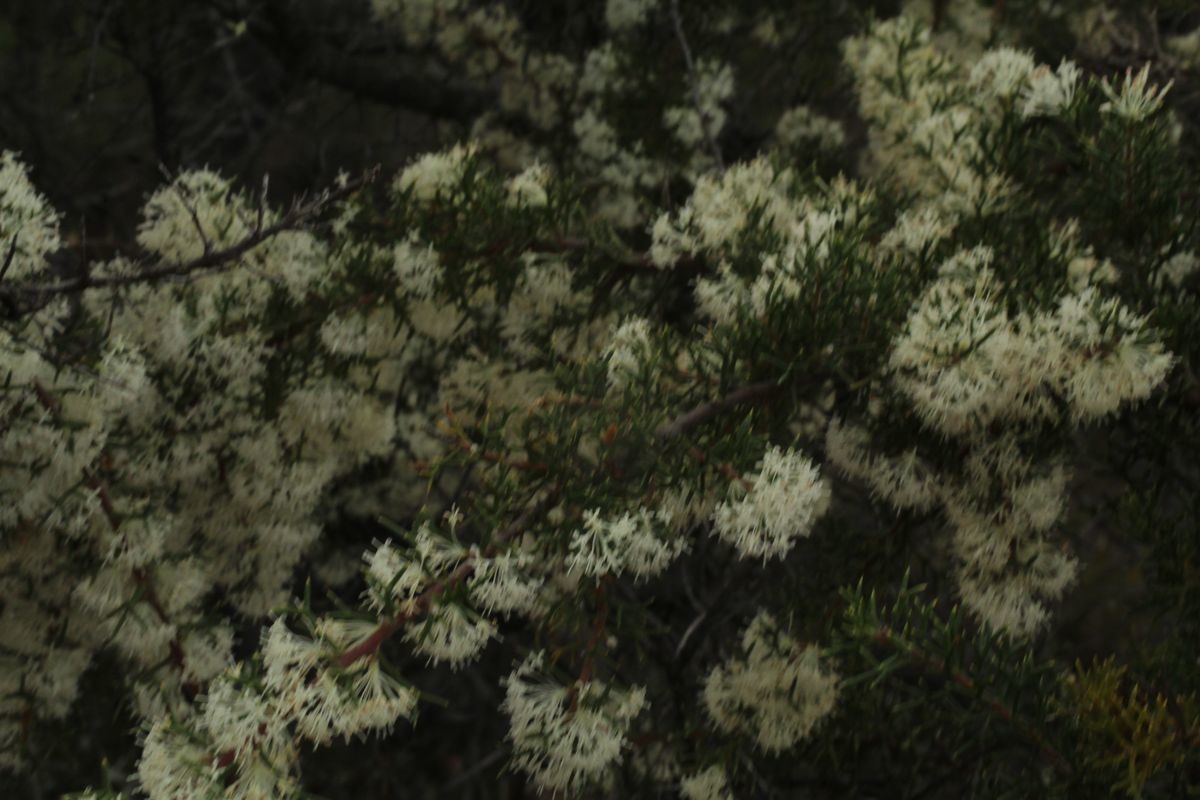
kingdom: Plantae
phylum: Tracheophyta
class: Magnoliopsida
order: Proteales
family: Proteaceae
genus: Hakea
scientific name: Hakea lissocarpha
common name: Honey bush
